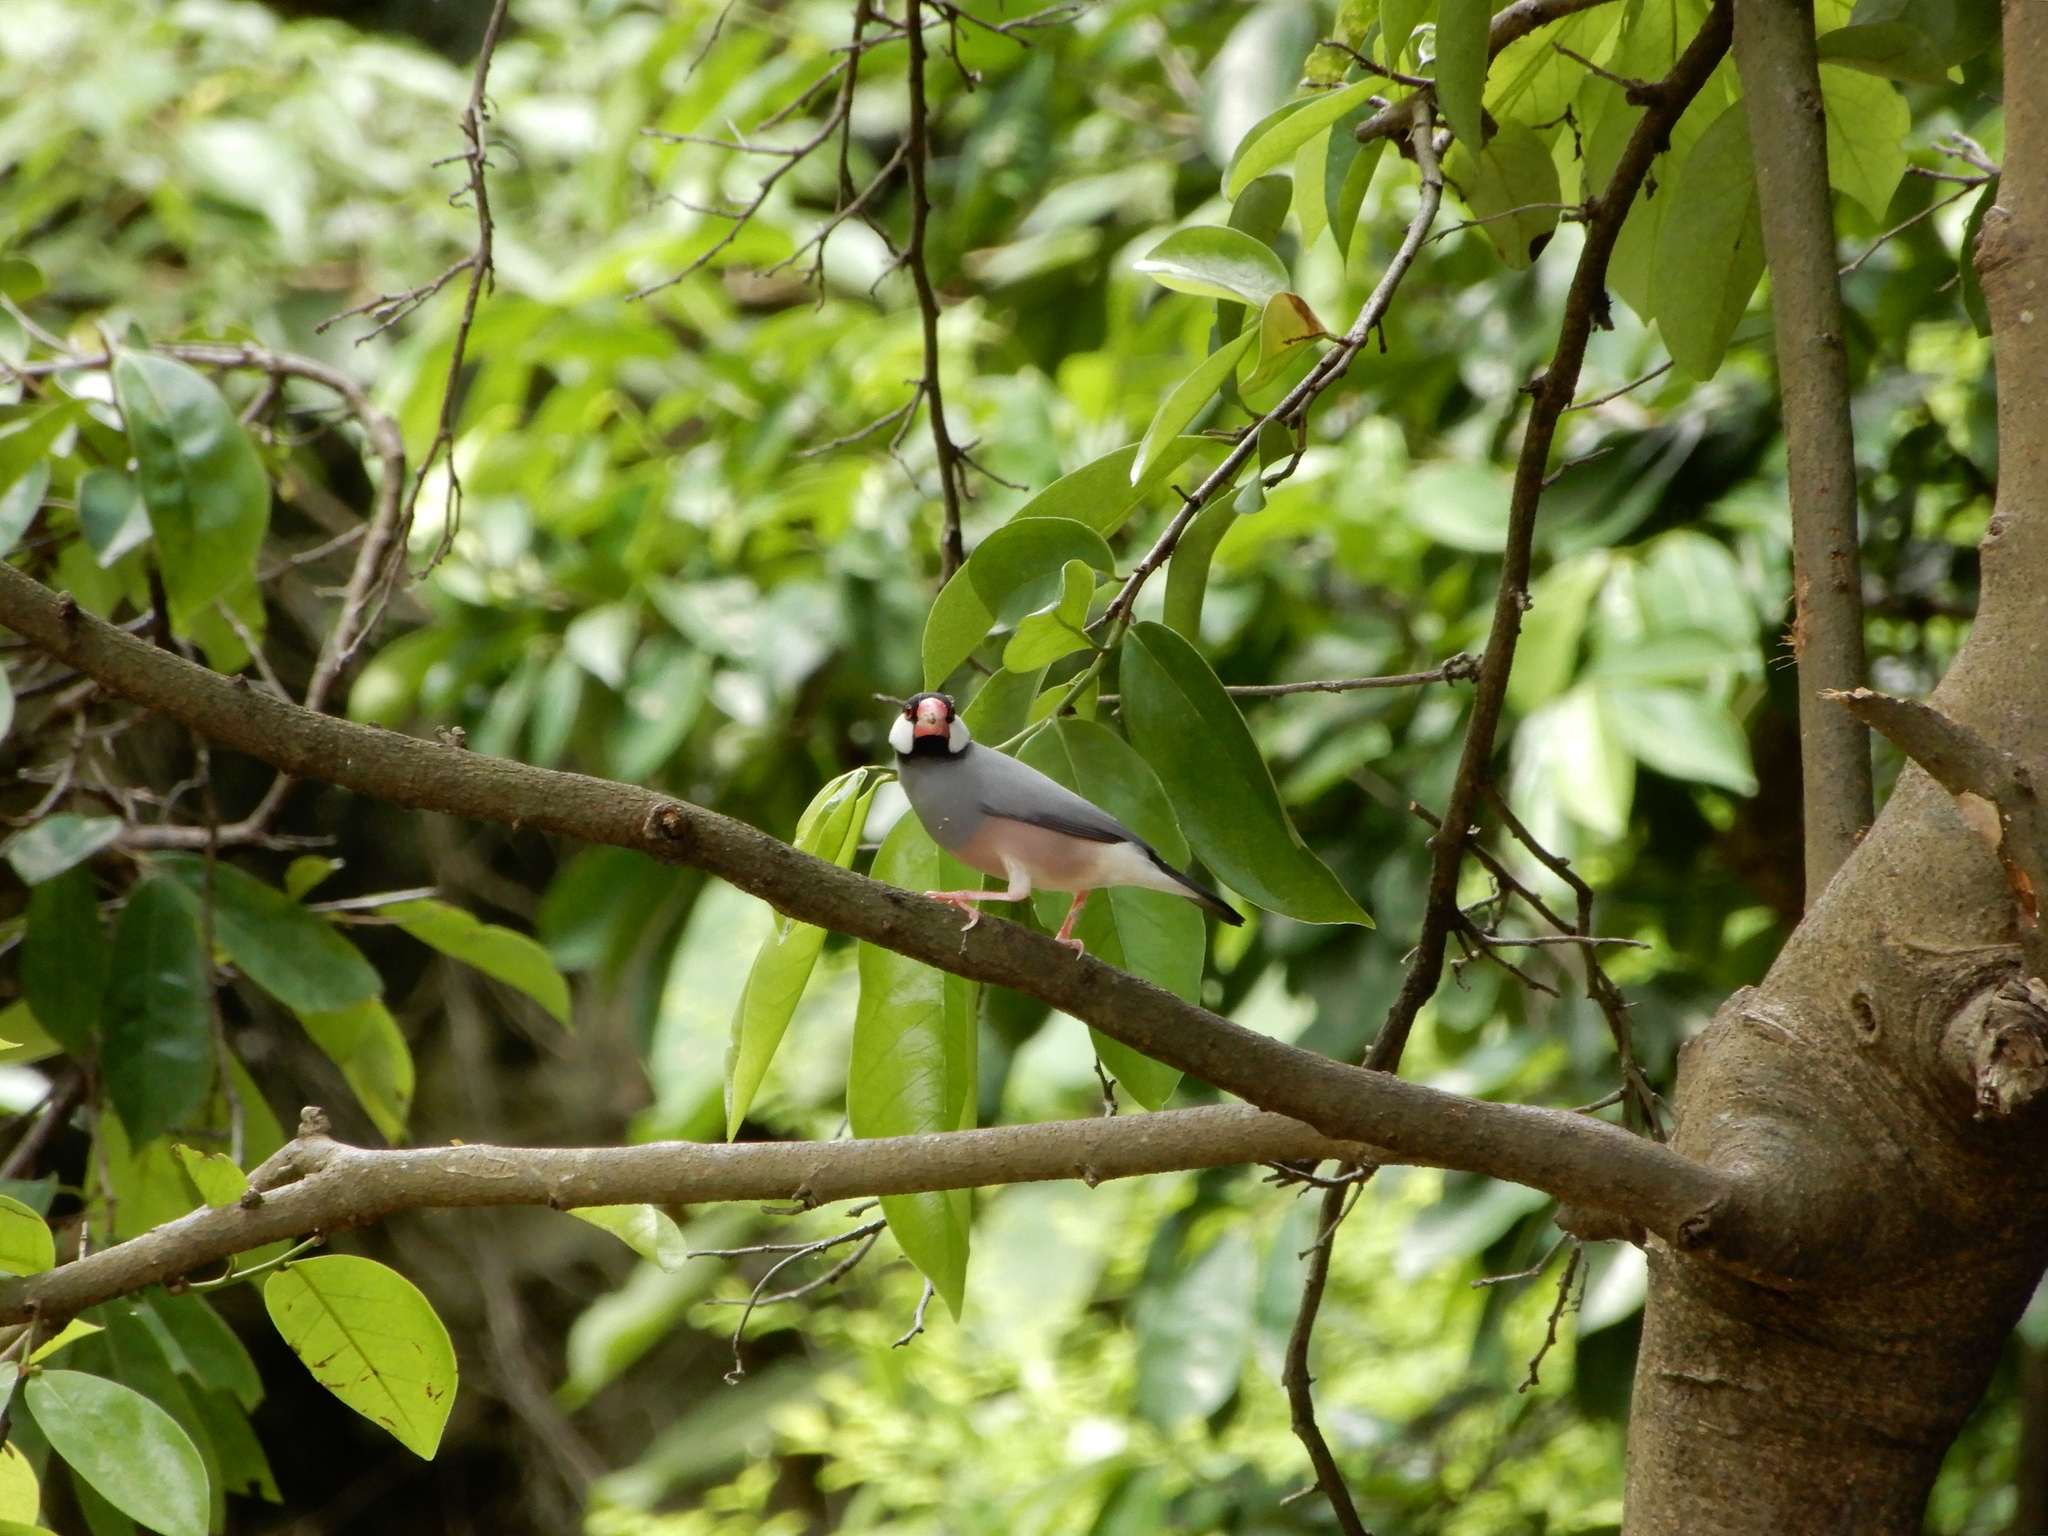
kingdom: Animalia
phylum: Chordata
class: Aves
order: Passeriformes
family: Estrildidae
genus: Lonchura
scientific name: Lonchura oryzivora
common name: Java sparrow
